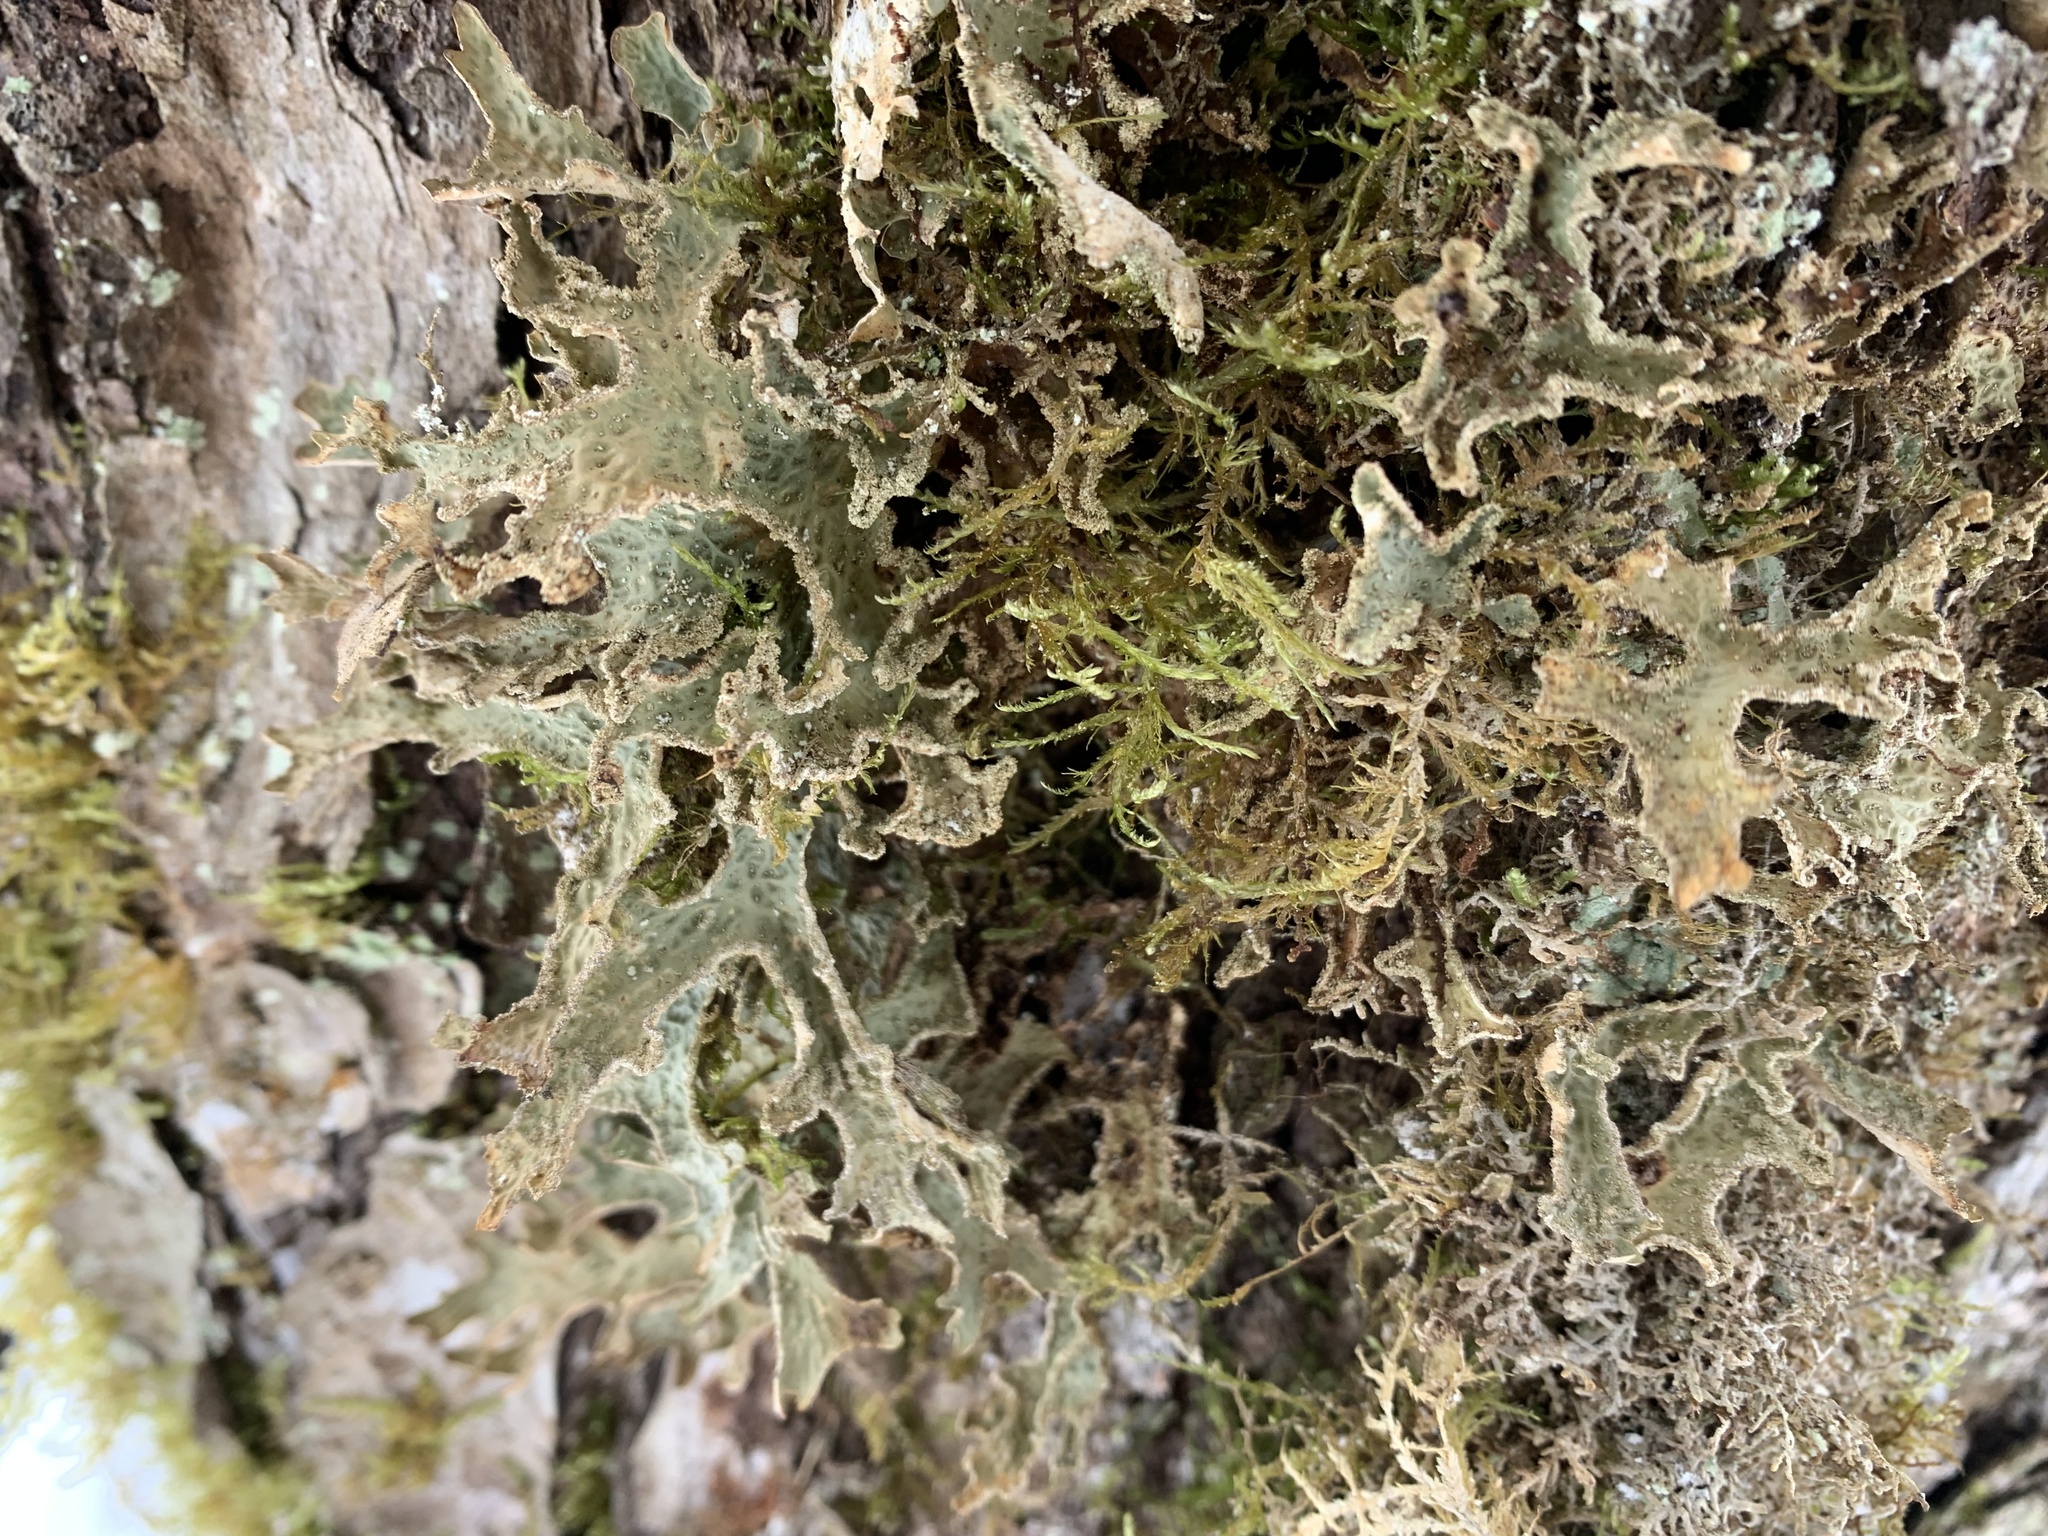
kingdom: Fungi
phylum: Ascomycota
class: Lecanoromycetes
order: Peltigerales
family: Lobariaceae
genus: Lobaria
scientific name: Lobaria pulmonaria
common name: Lungwort
